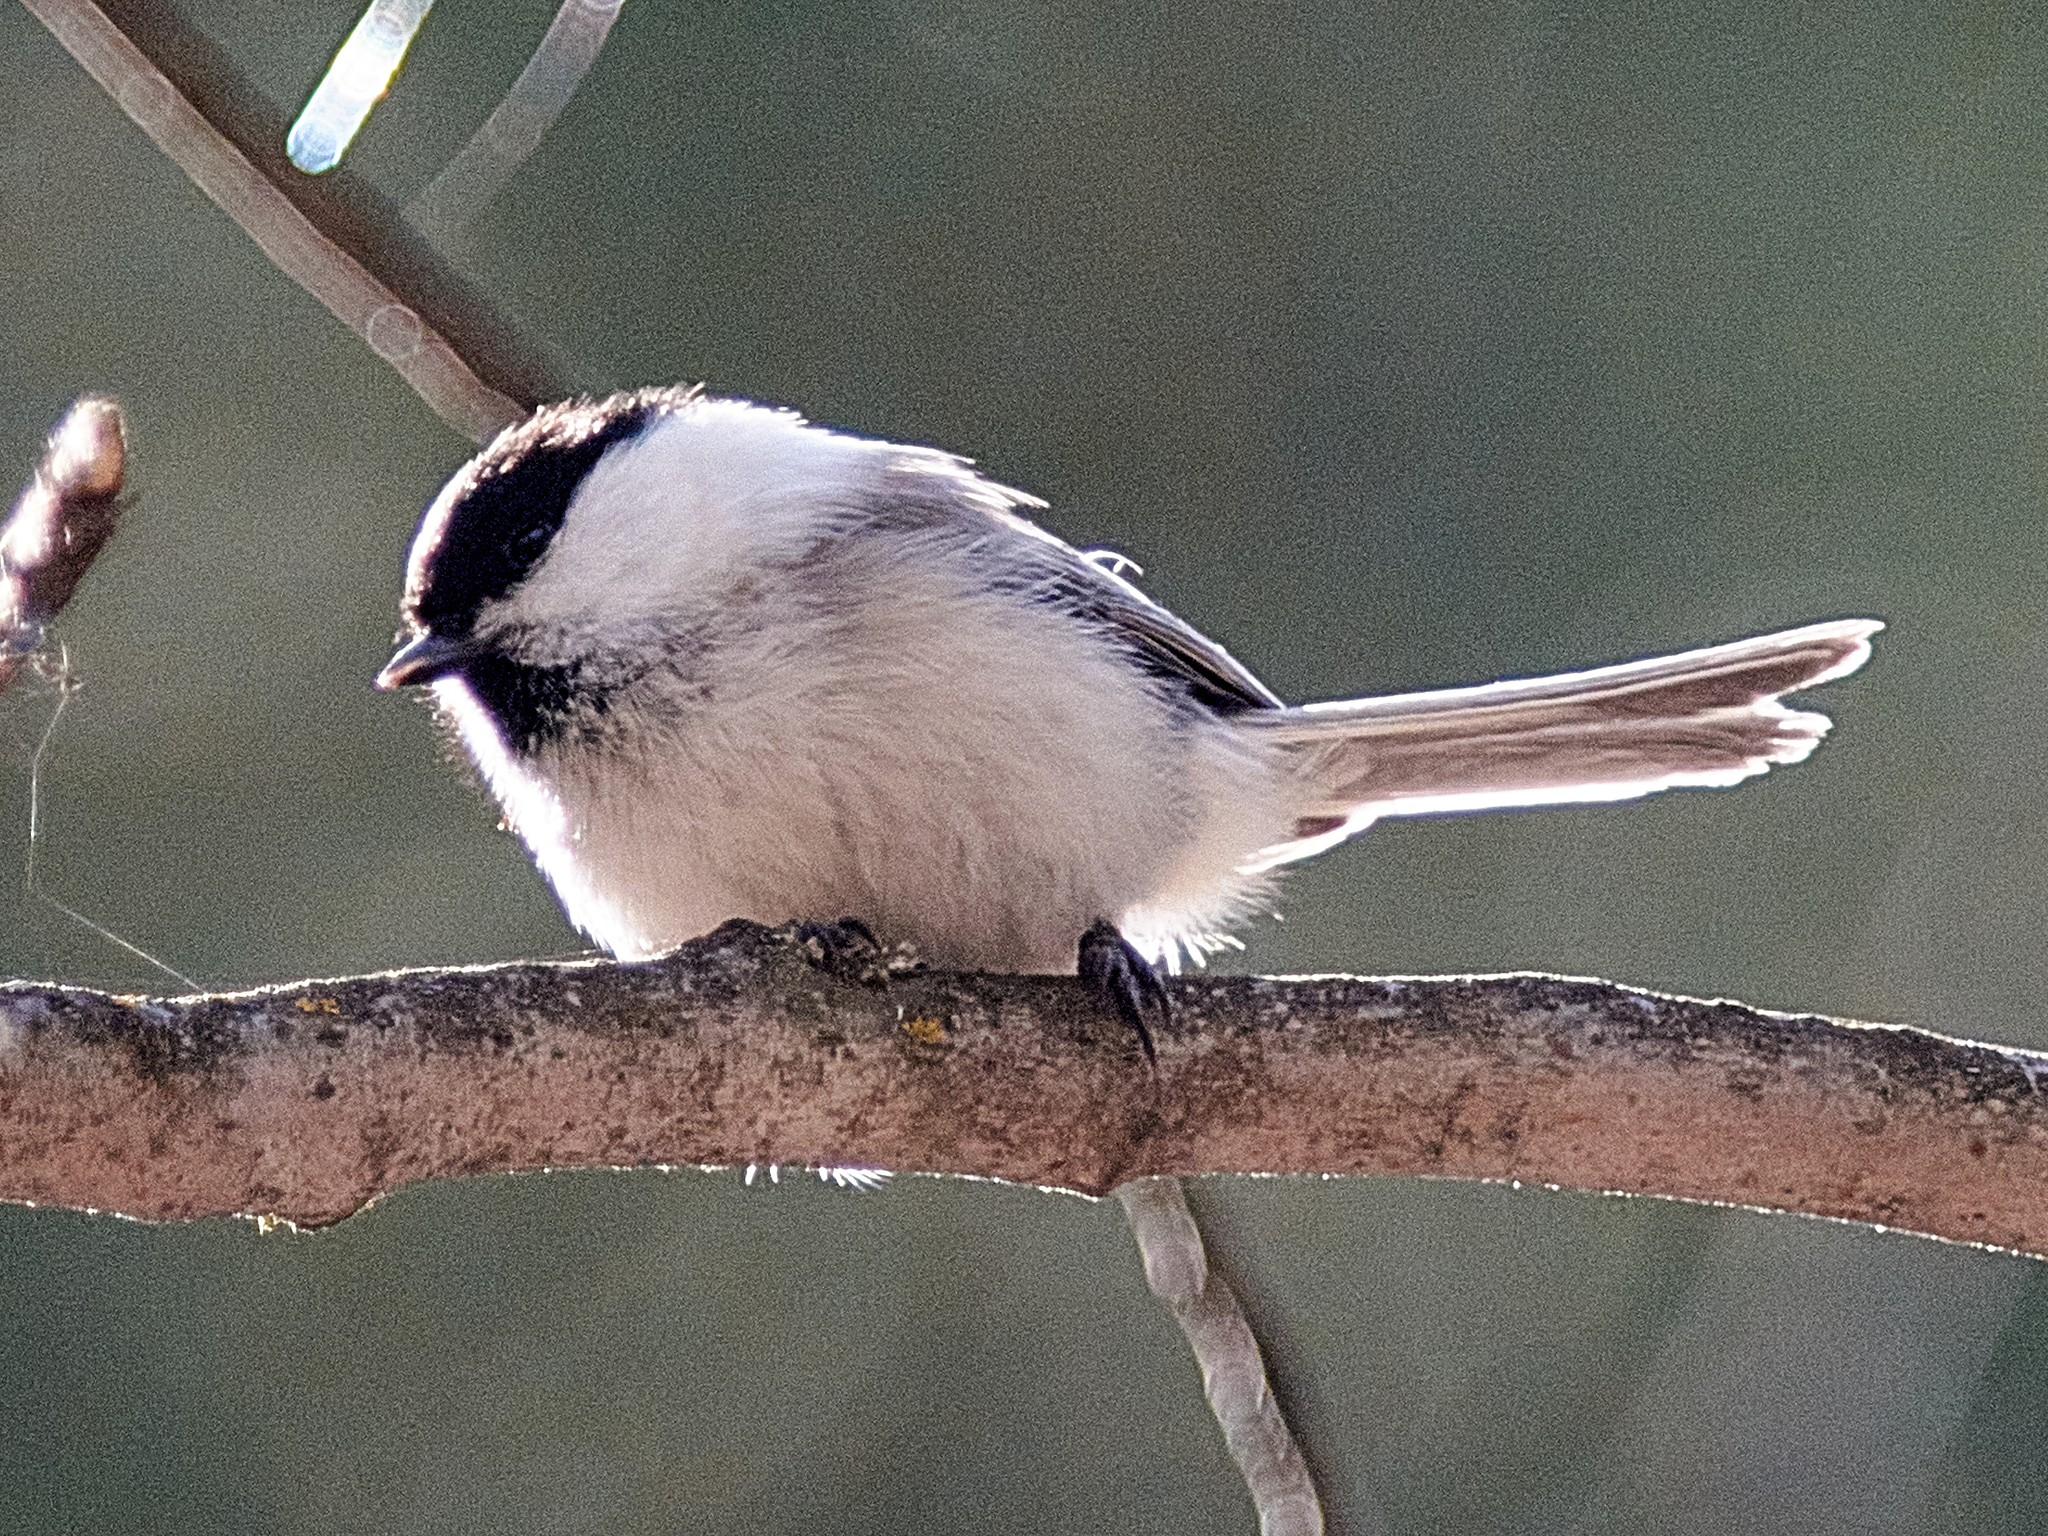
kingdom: Animalia
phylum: Chordata
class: Aves
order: Passeriformes
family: Paridae
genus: Poecile
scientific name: Poecile montanus
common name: Willow tit
